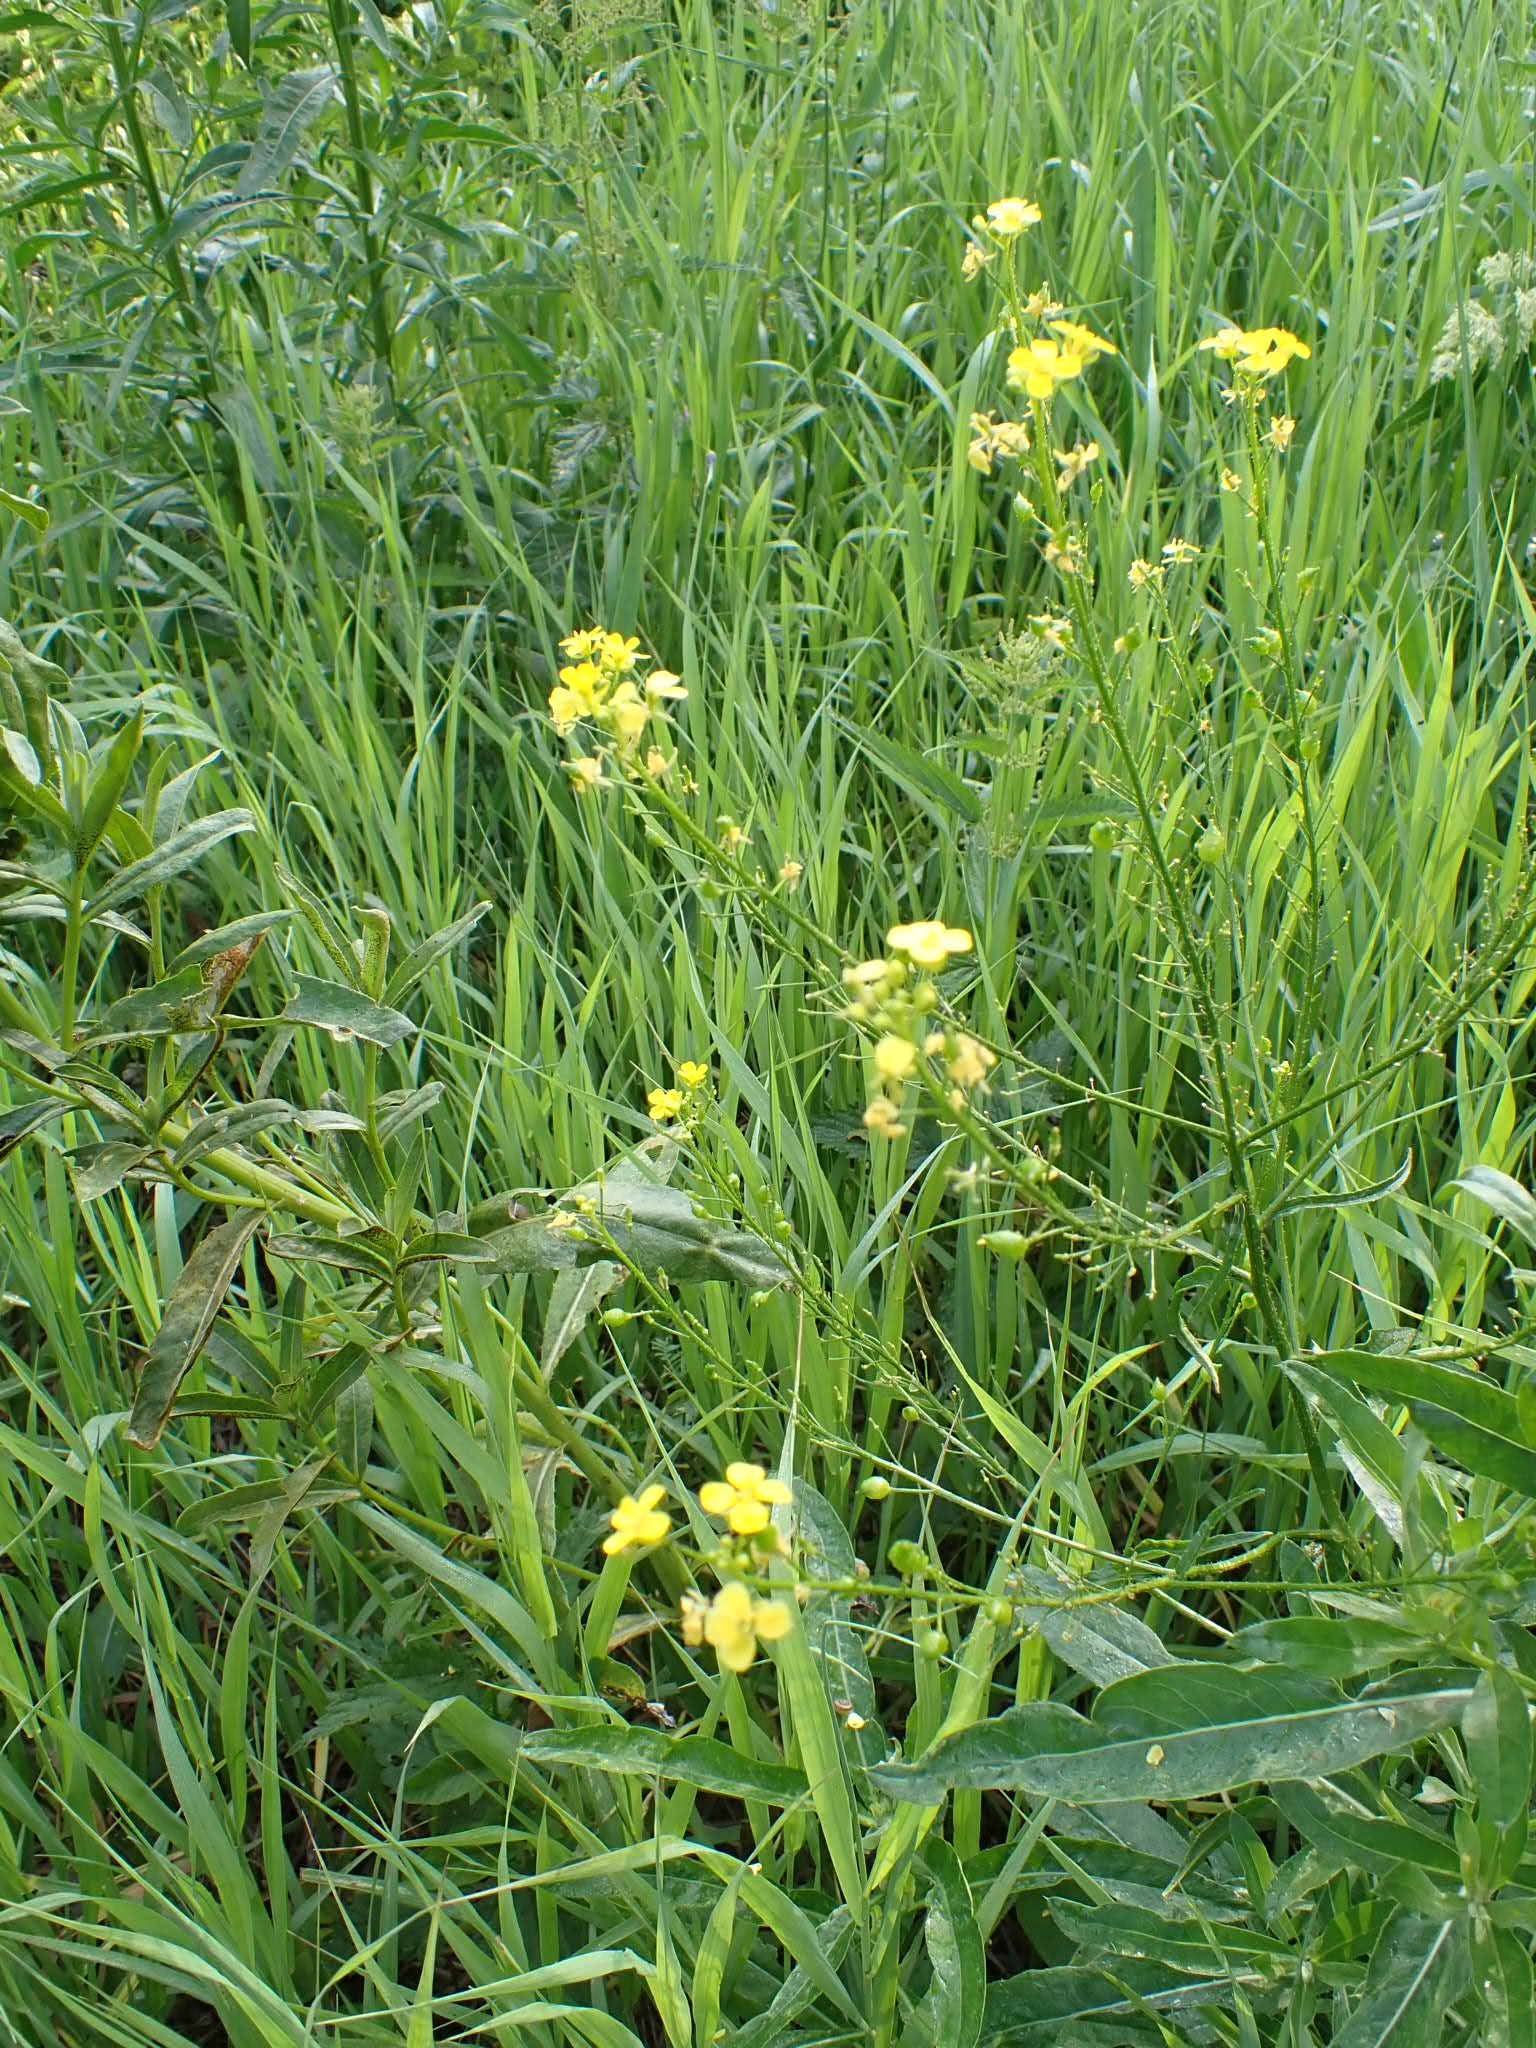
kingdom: Plantae
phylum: Tracheophyta
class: Magnoliopsida
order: Brassicales
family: Brassicaceae
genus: Bunias
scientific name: Bunias orientalis
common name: Warty-cabbage
